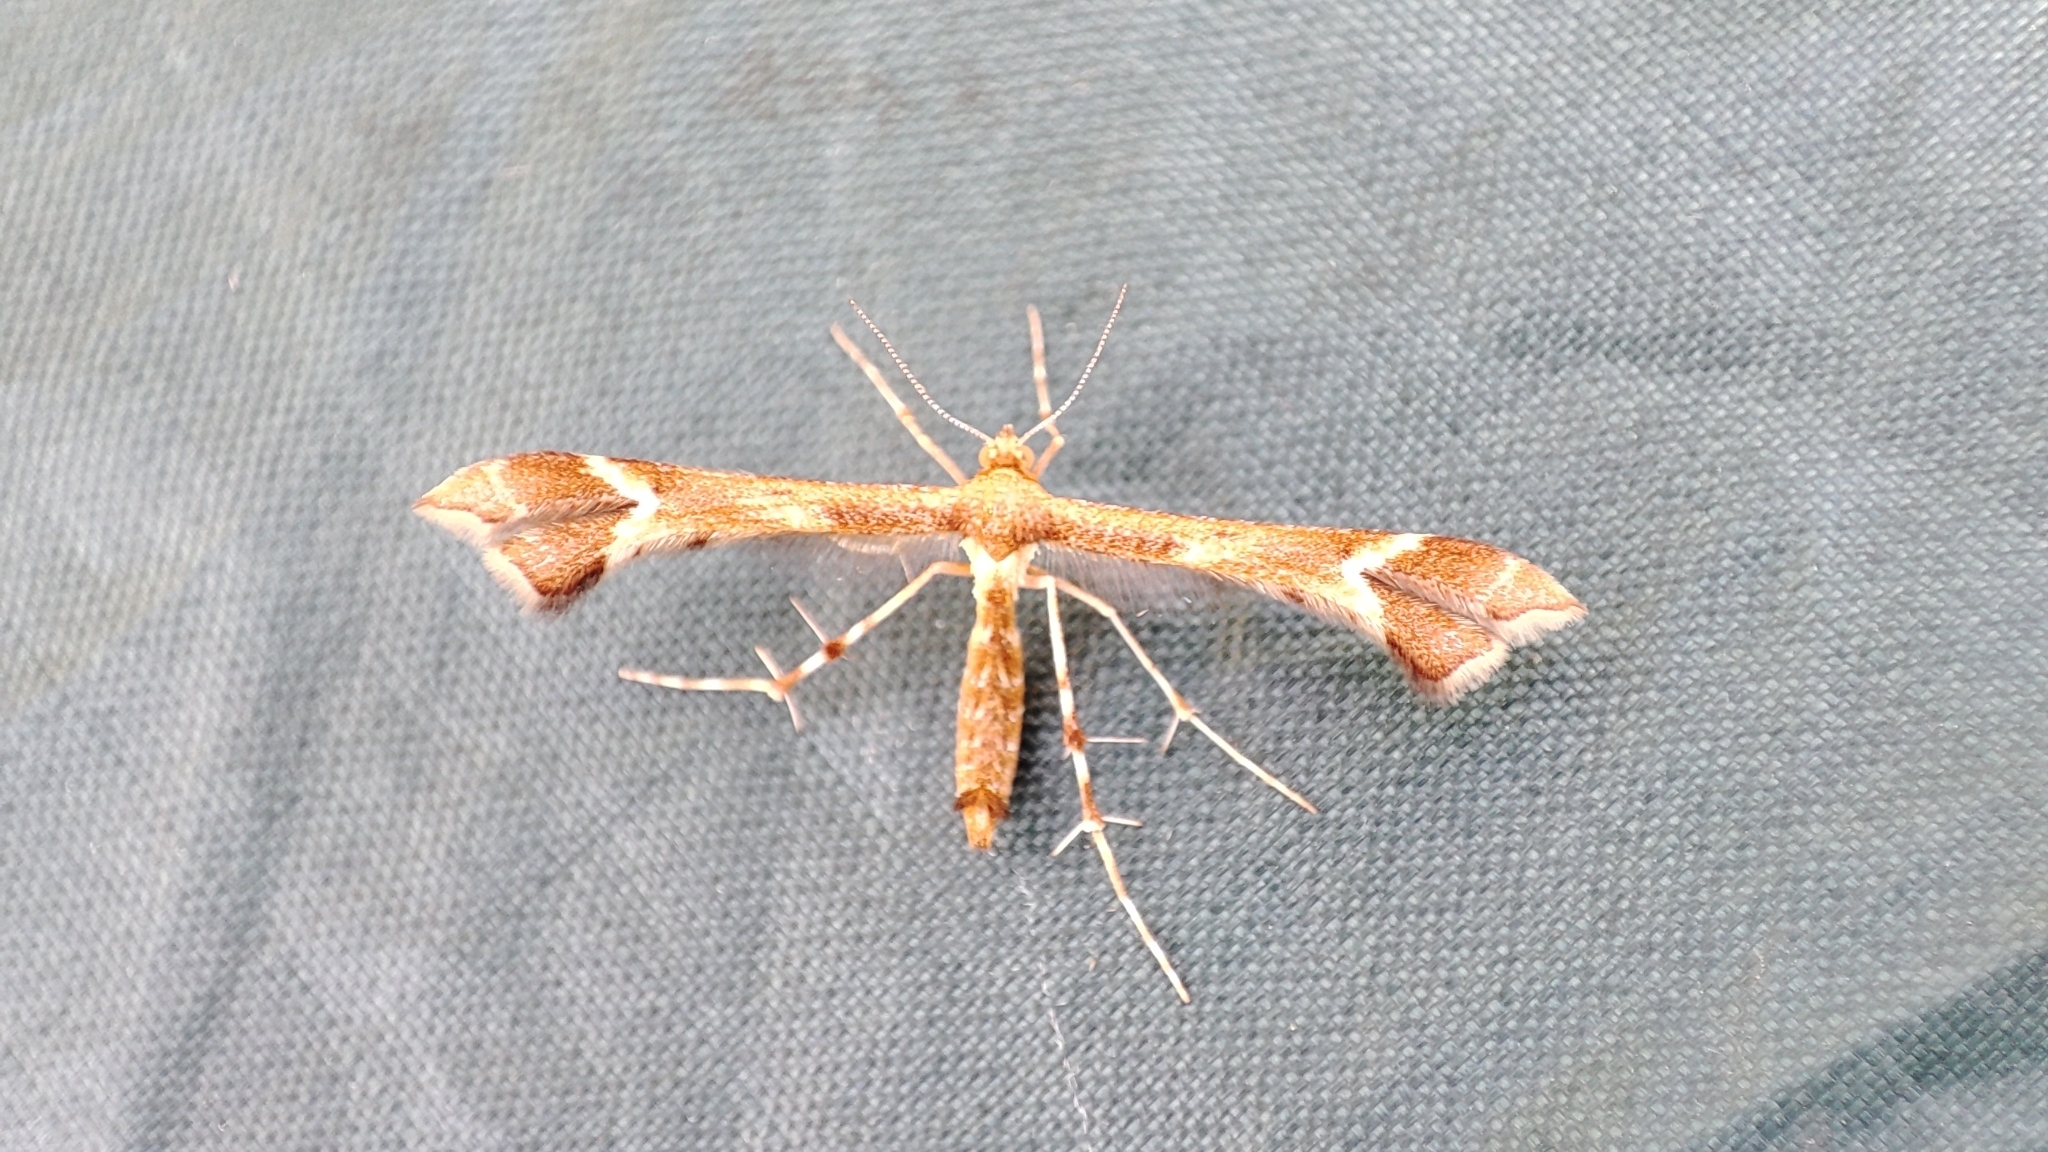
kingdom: Animalia
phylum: Arthropoda
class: Insecta
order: Lepidoptera
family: Pterophoridae
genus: Marasmarcha
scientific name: Marasmarcha cinnamomeus
